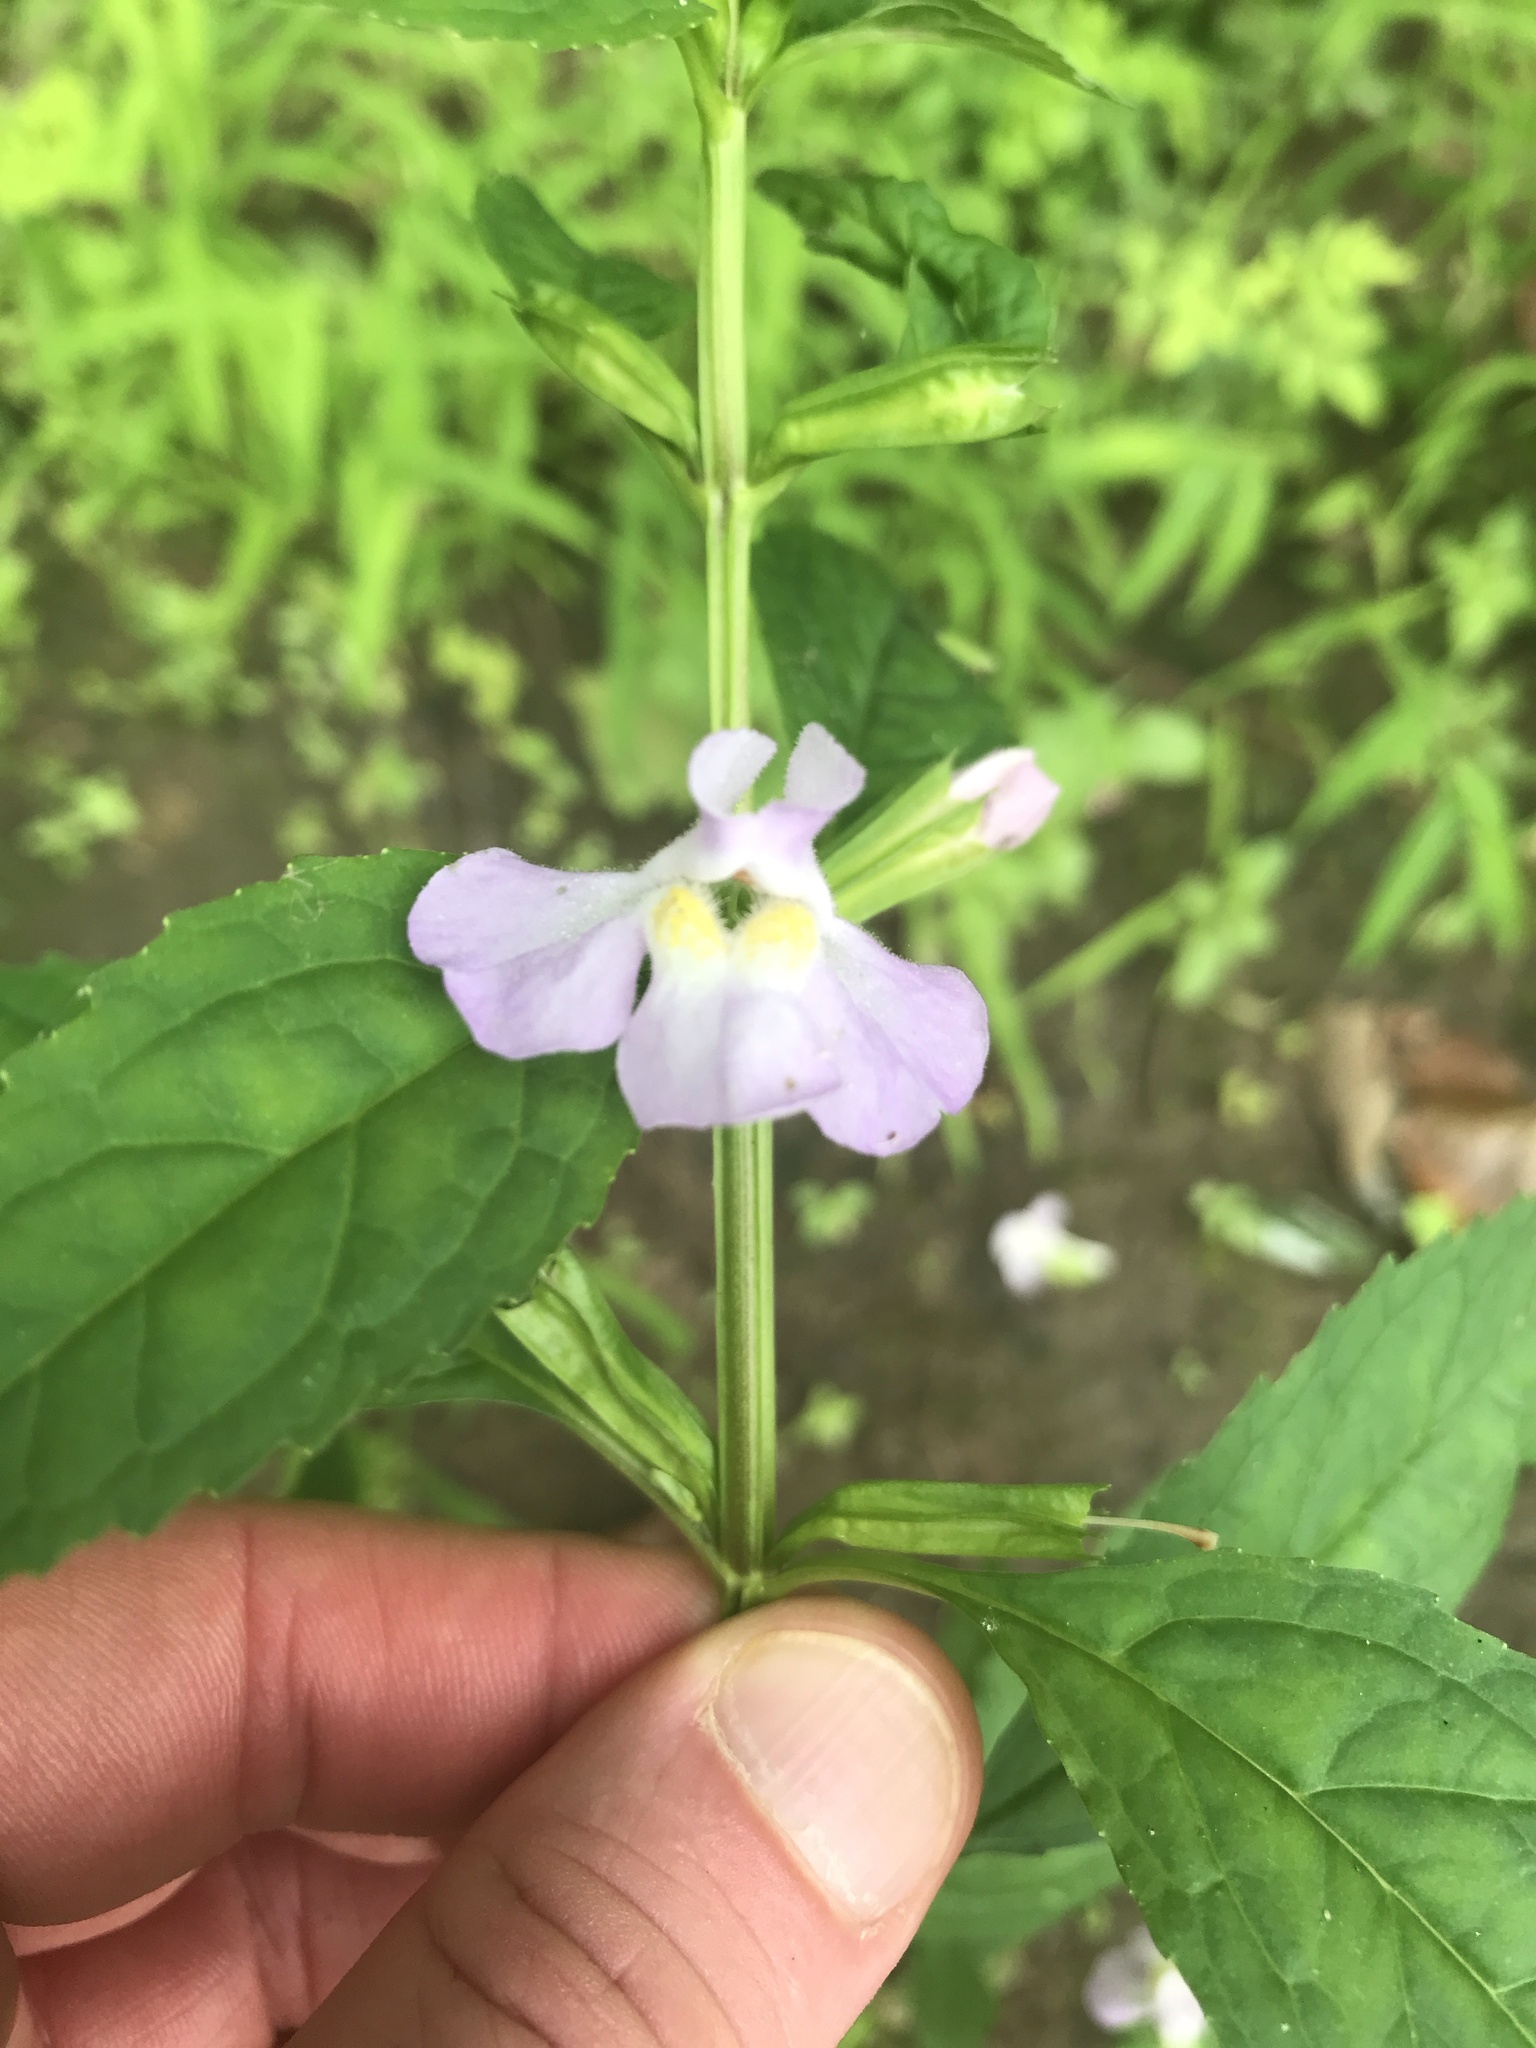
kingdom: Plantae
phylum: Tracheophyta
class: Magnoliopsida
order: Lamiales
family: Phrymaceae
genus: Mimulus
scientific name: Mimulus alatus
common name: Sharp-wing monkey-flower
